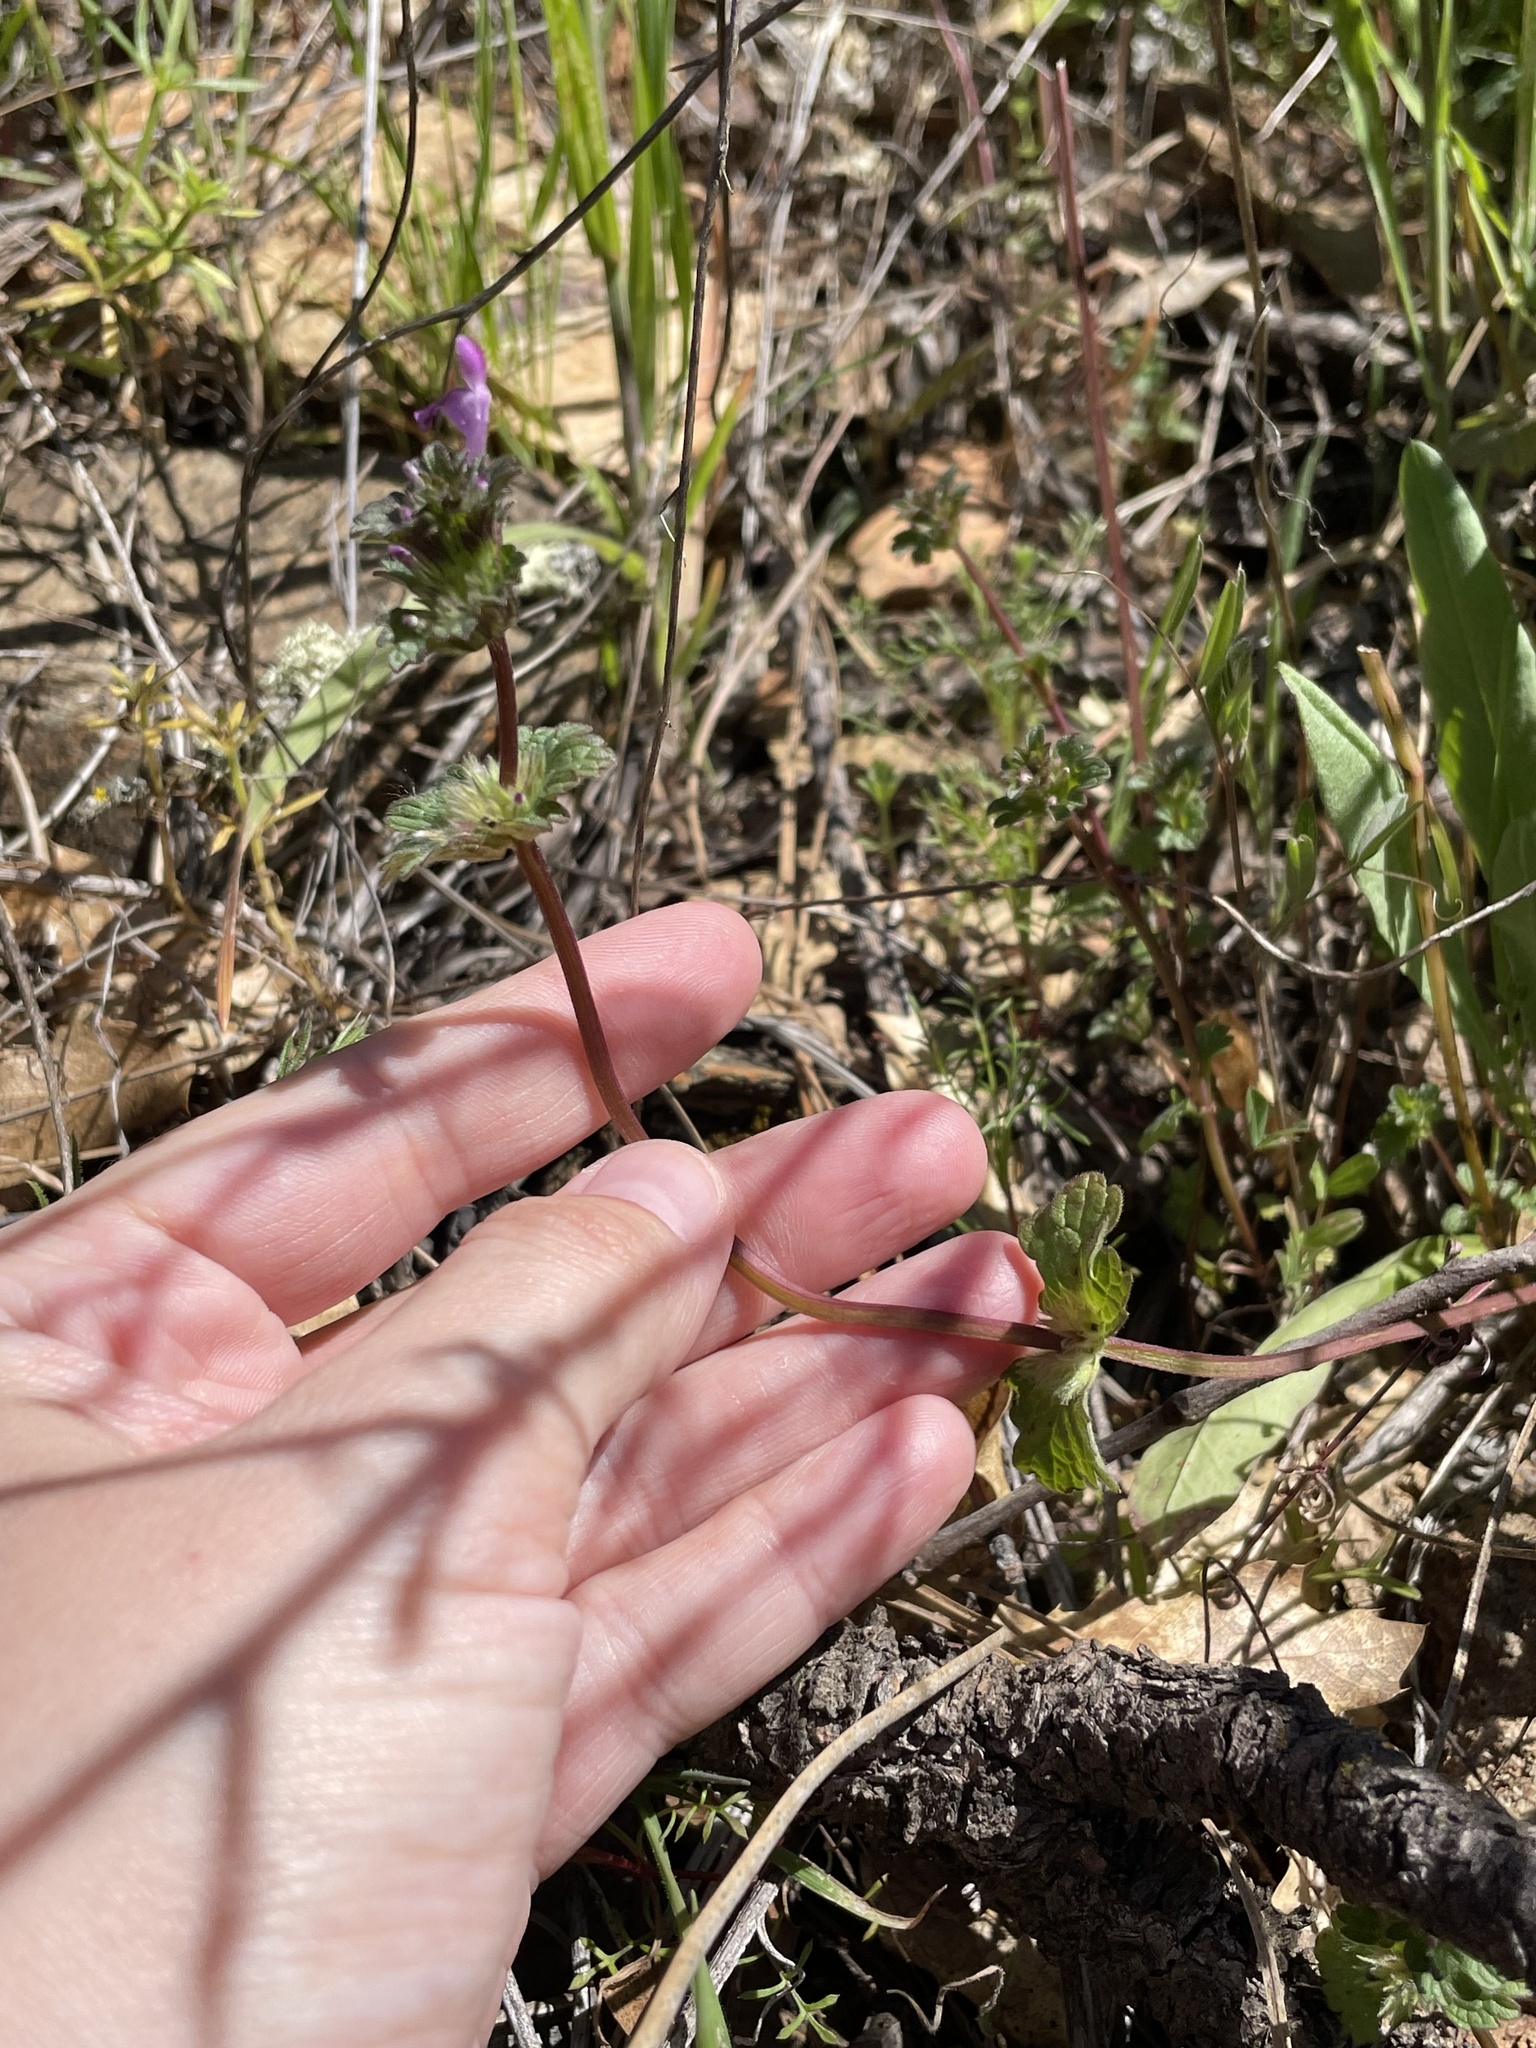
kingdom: Plantae
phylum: Tracheophyta
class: Magnoliopsida
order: Lamiales
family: Lamiaceae
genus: Lamium
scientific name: Lamium amplexicaule
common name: Henbit dead-nettle
